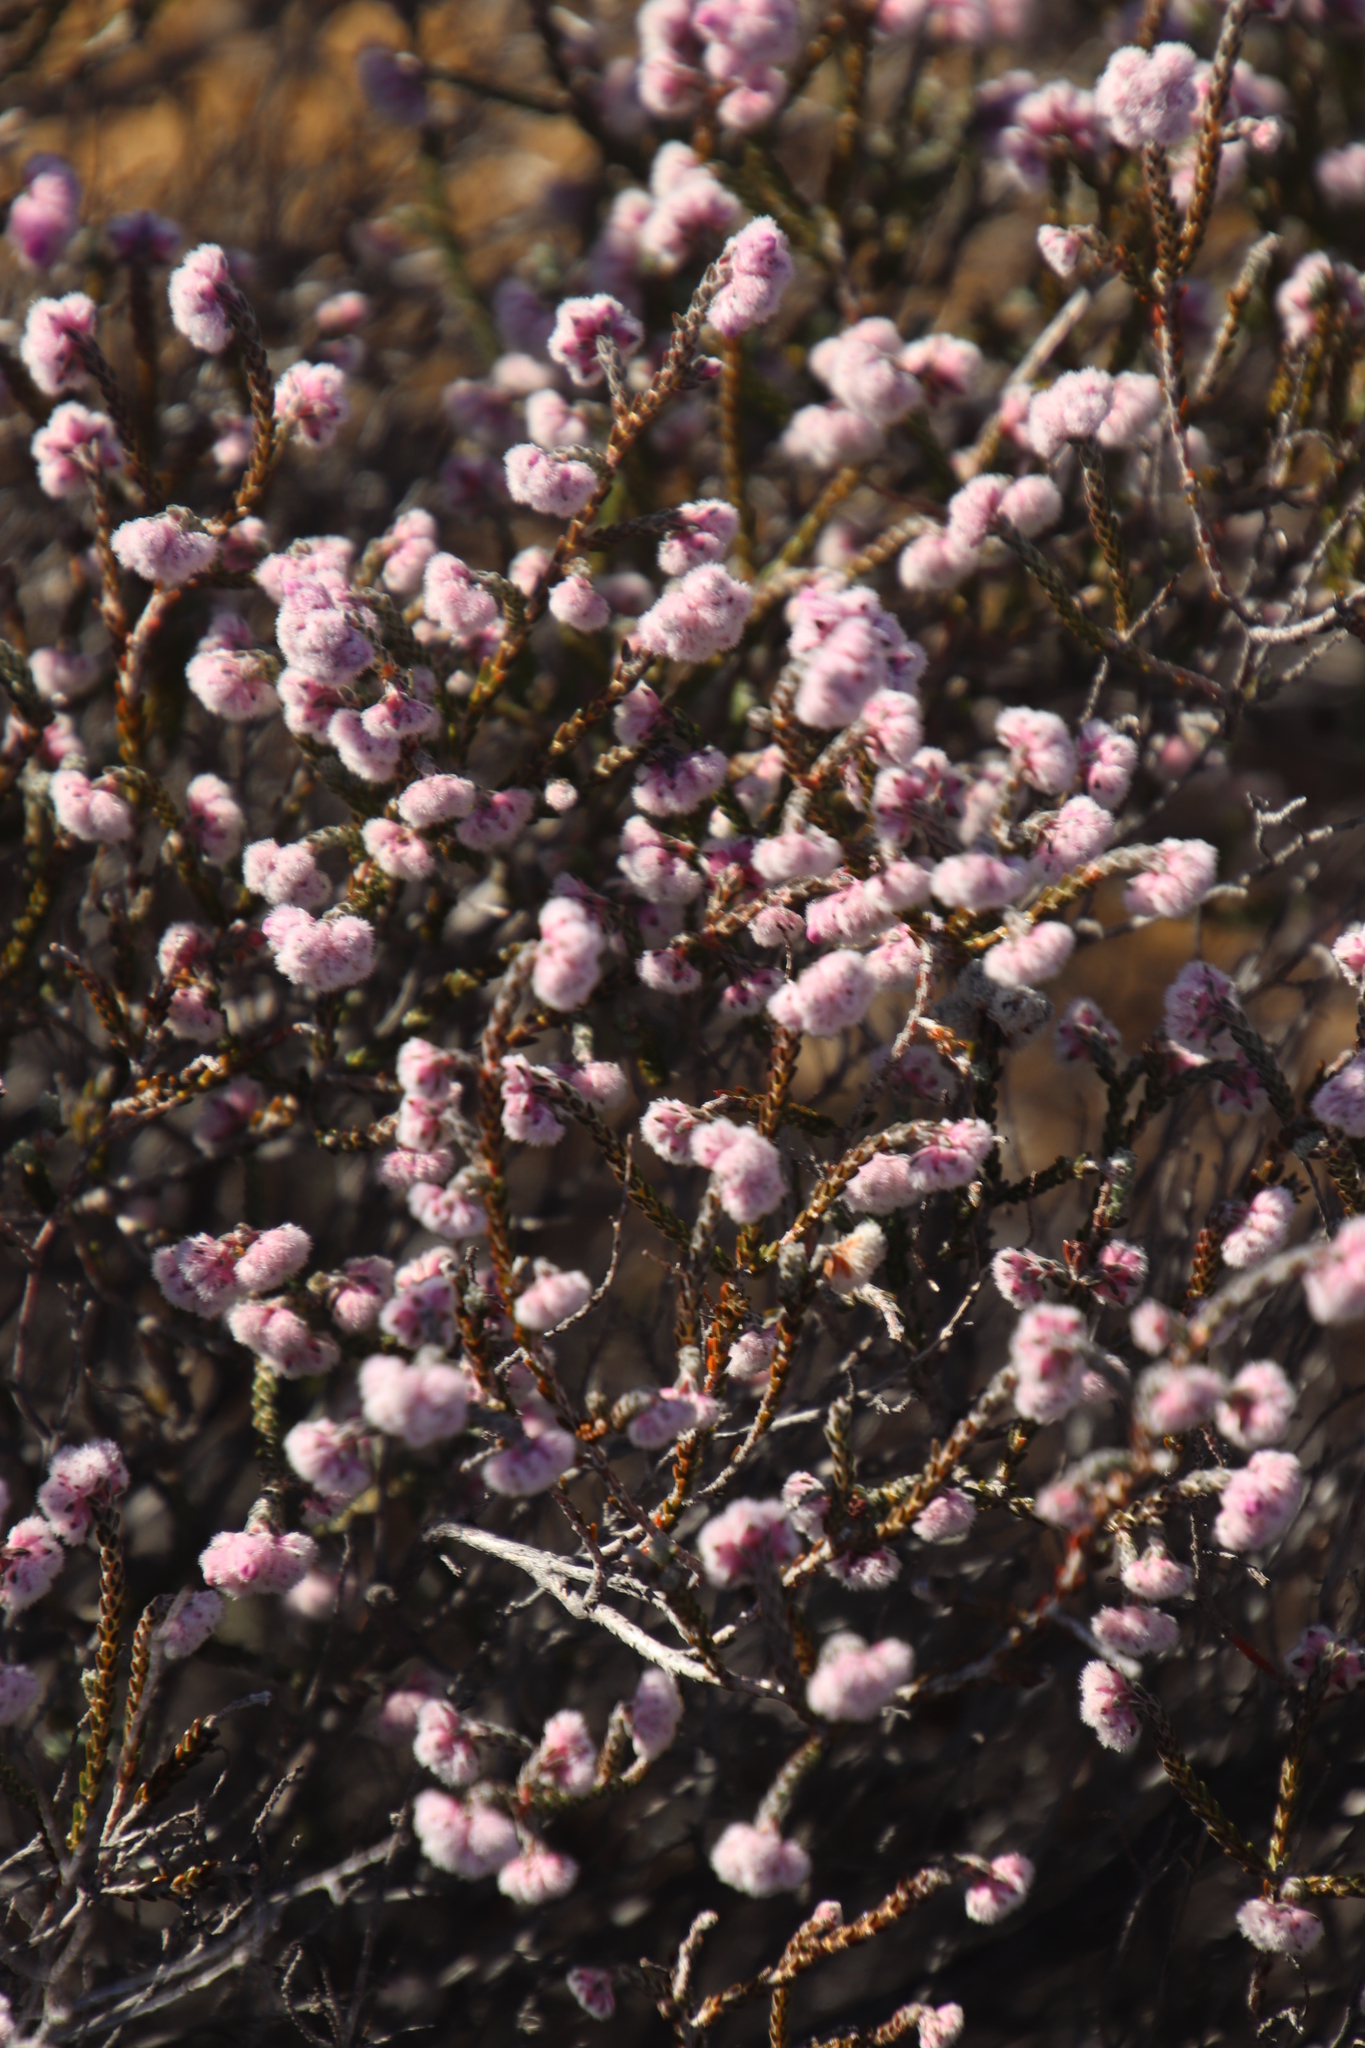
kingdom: Plantae
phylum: Tracheophyta
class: Magnoliopsida
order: Ericales
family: Ericaceae
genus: Erica
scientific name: Erica plumosa
